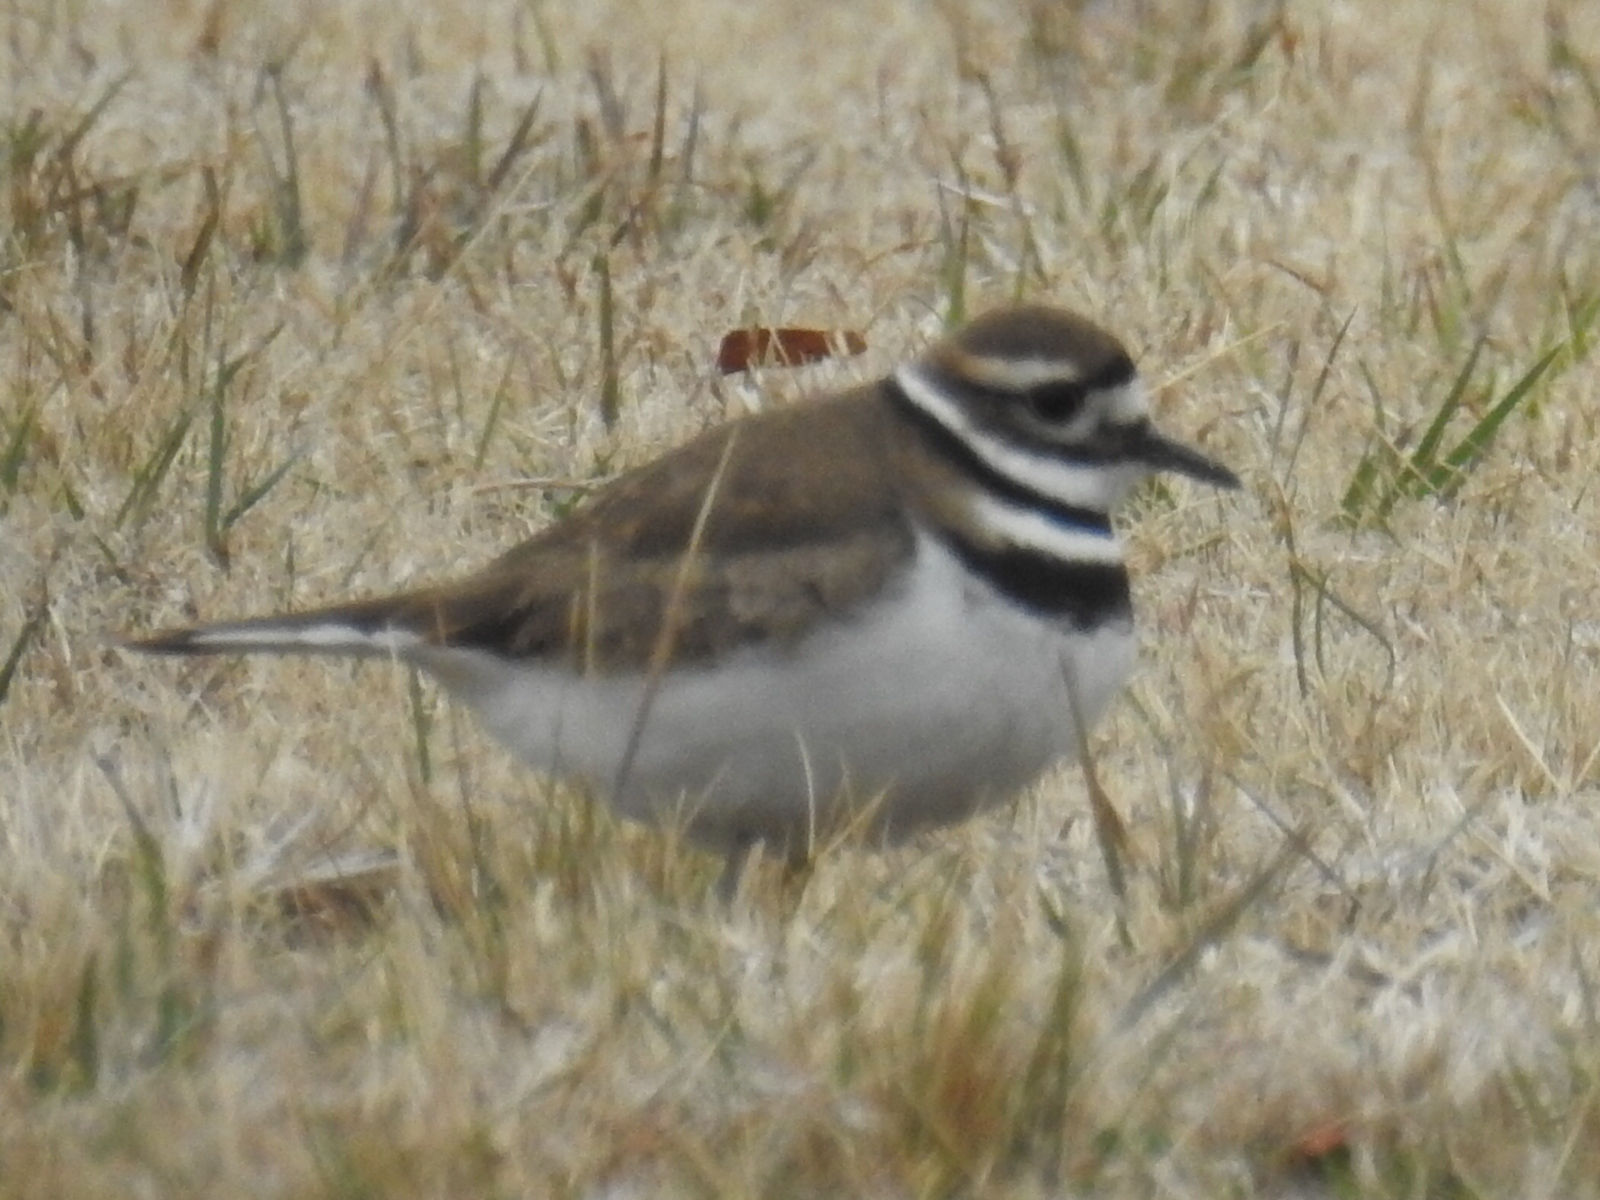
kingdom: Animalia
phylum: Chordata
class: Aves
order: Charadriiformes
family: Charadriidae
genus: Charadrius
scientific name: Charadrius vociferus
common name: Killdeer
